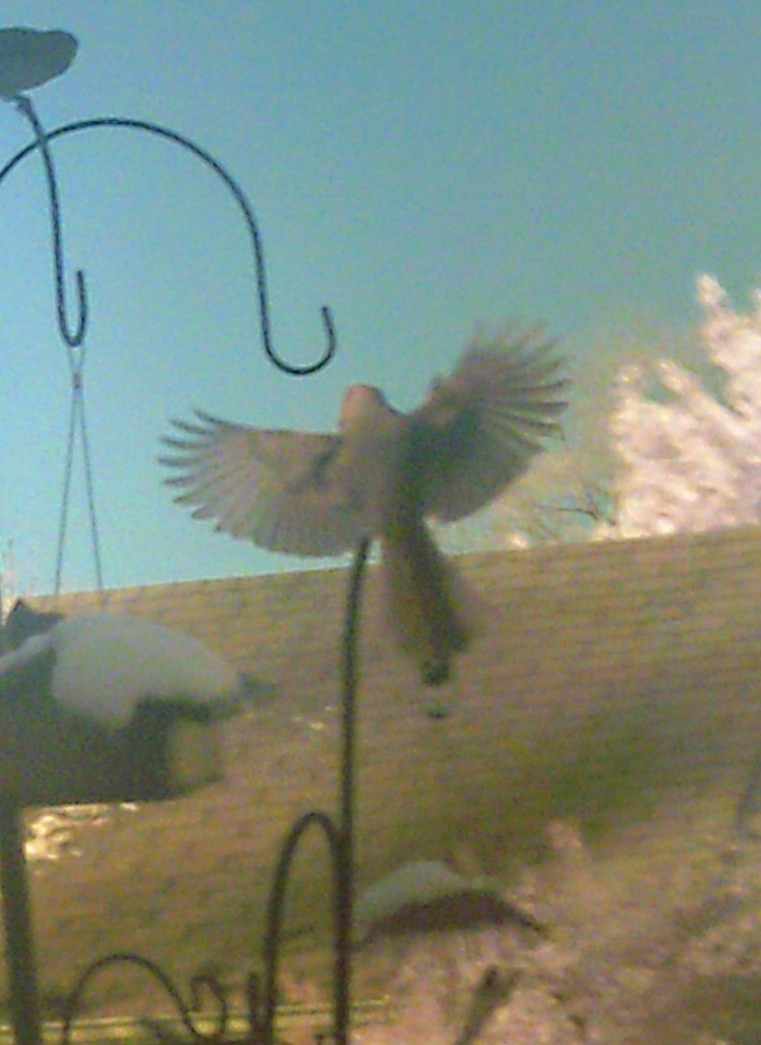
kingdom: Animalia
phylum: Chordata
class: Aves
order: Piciformes
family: Picidae
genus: Melanerpes
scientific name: Melanerpes carolinus
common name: Red-bellied woodpecker
